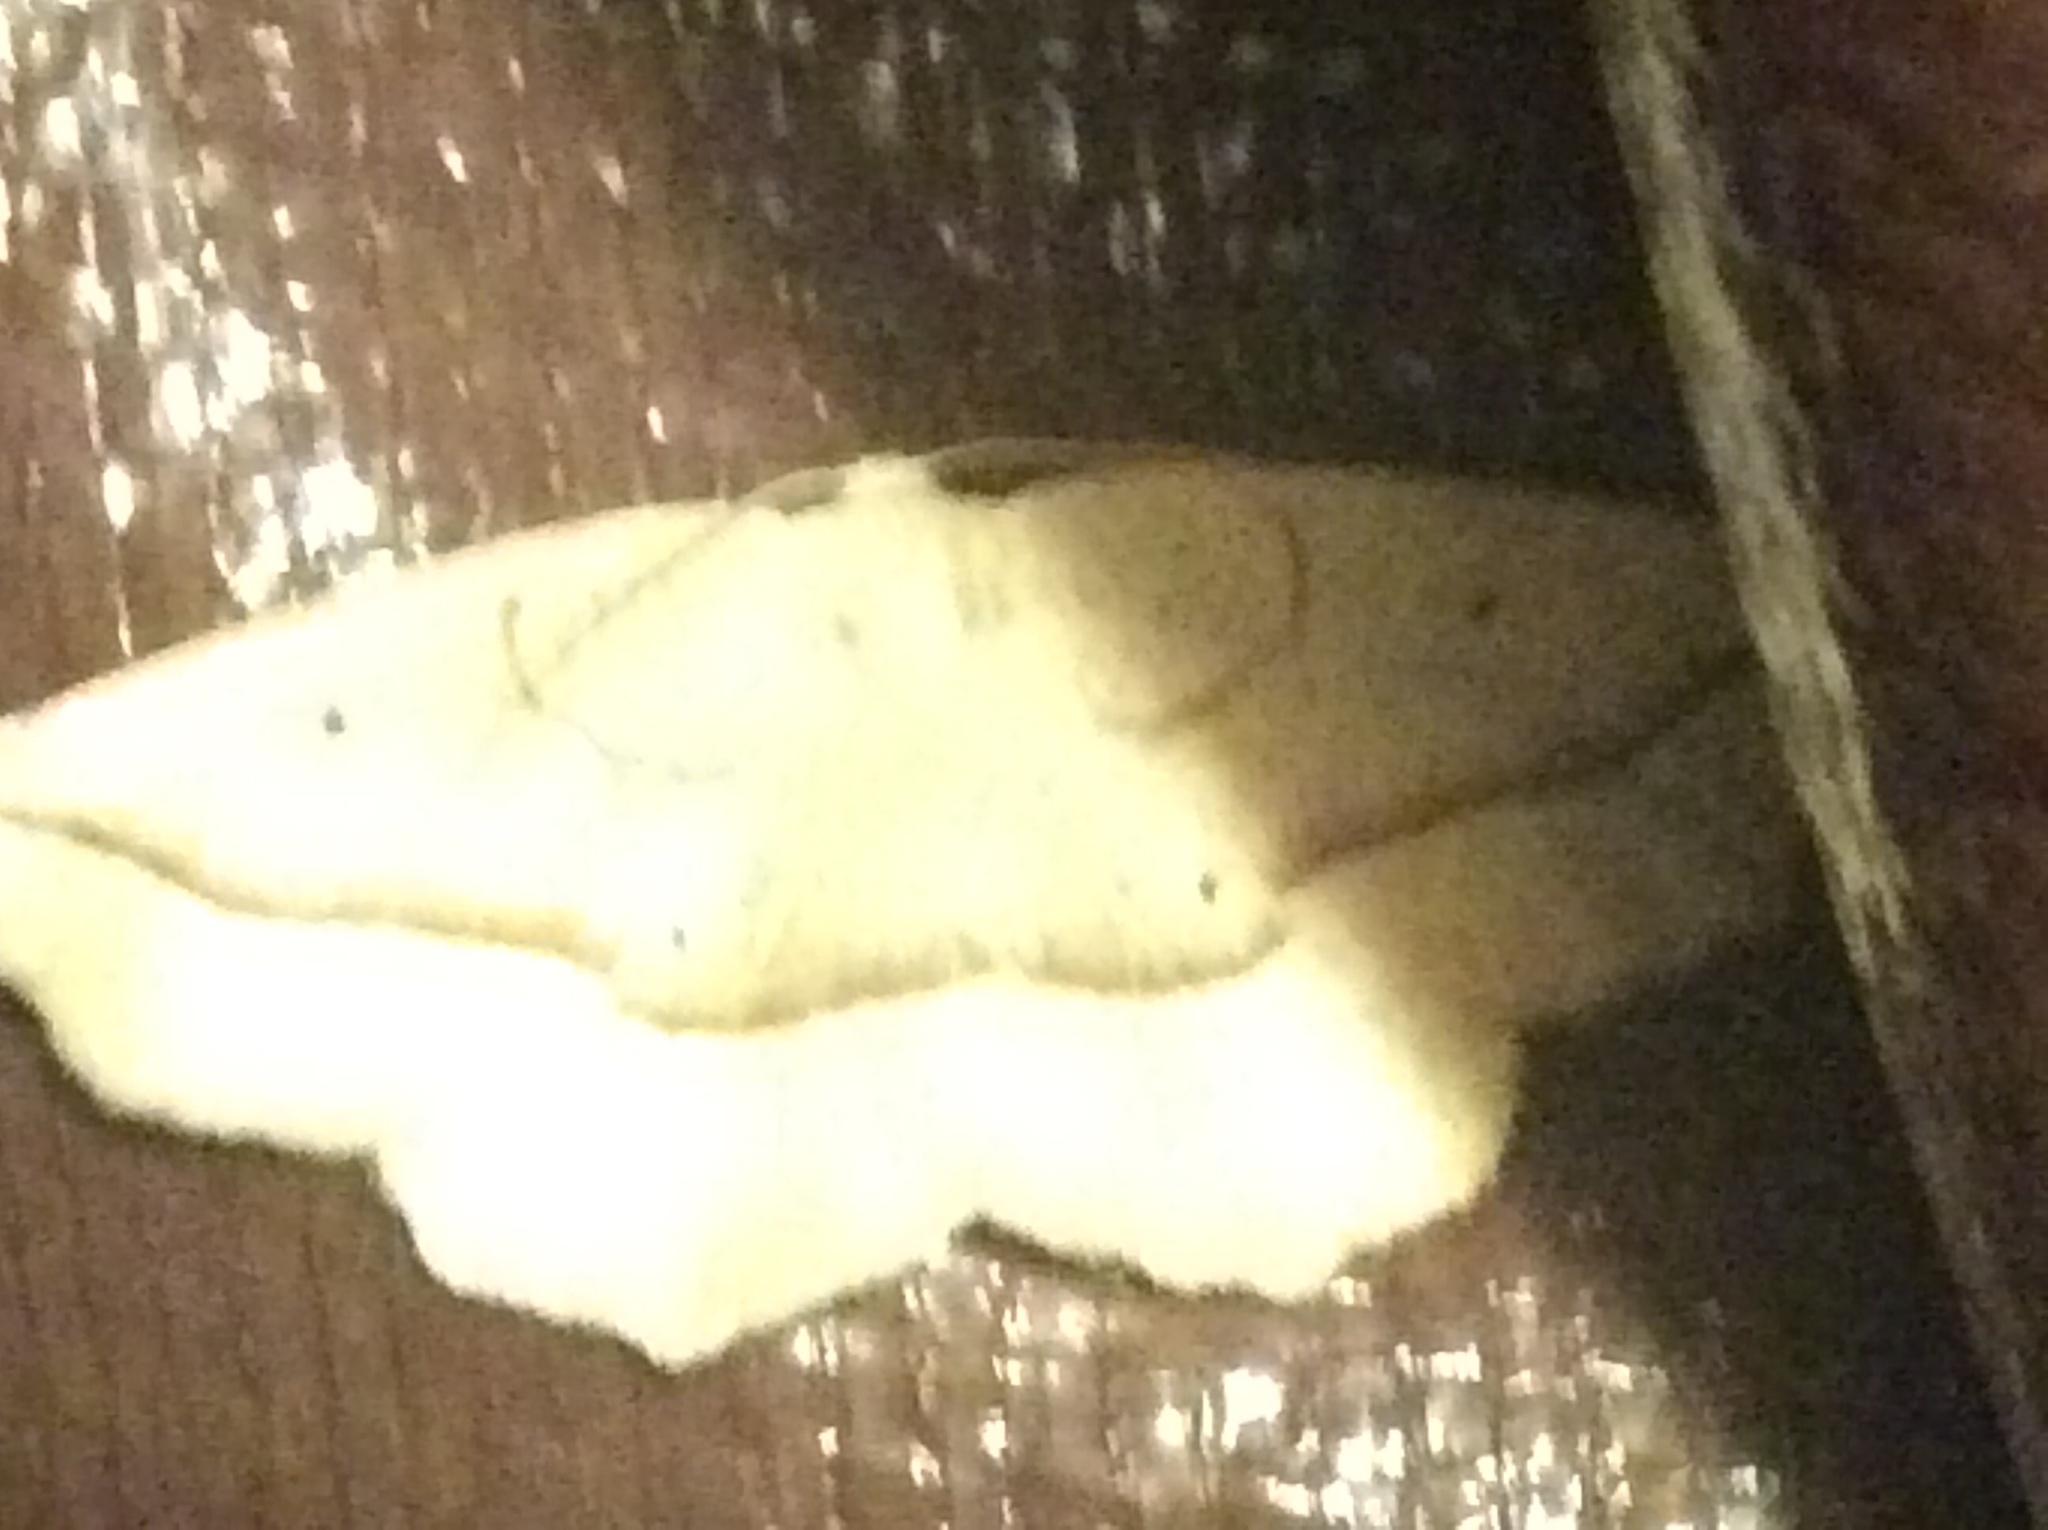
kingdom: Animalia
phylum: Arthropoda
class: Insecta
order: Lepidoptera
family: Geometridae
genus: Eusarca
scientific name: Eusarca confusaria
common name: Confused eusarca
